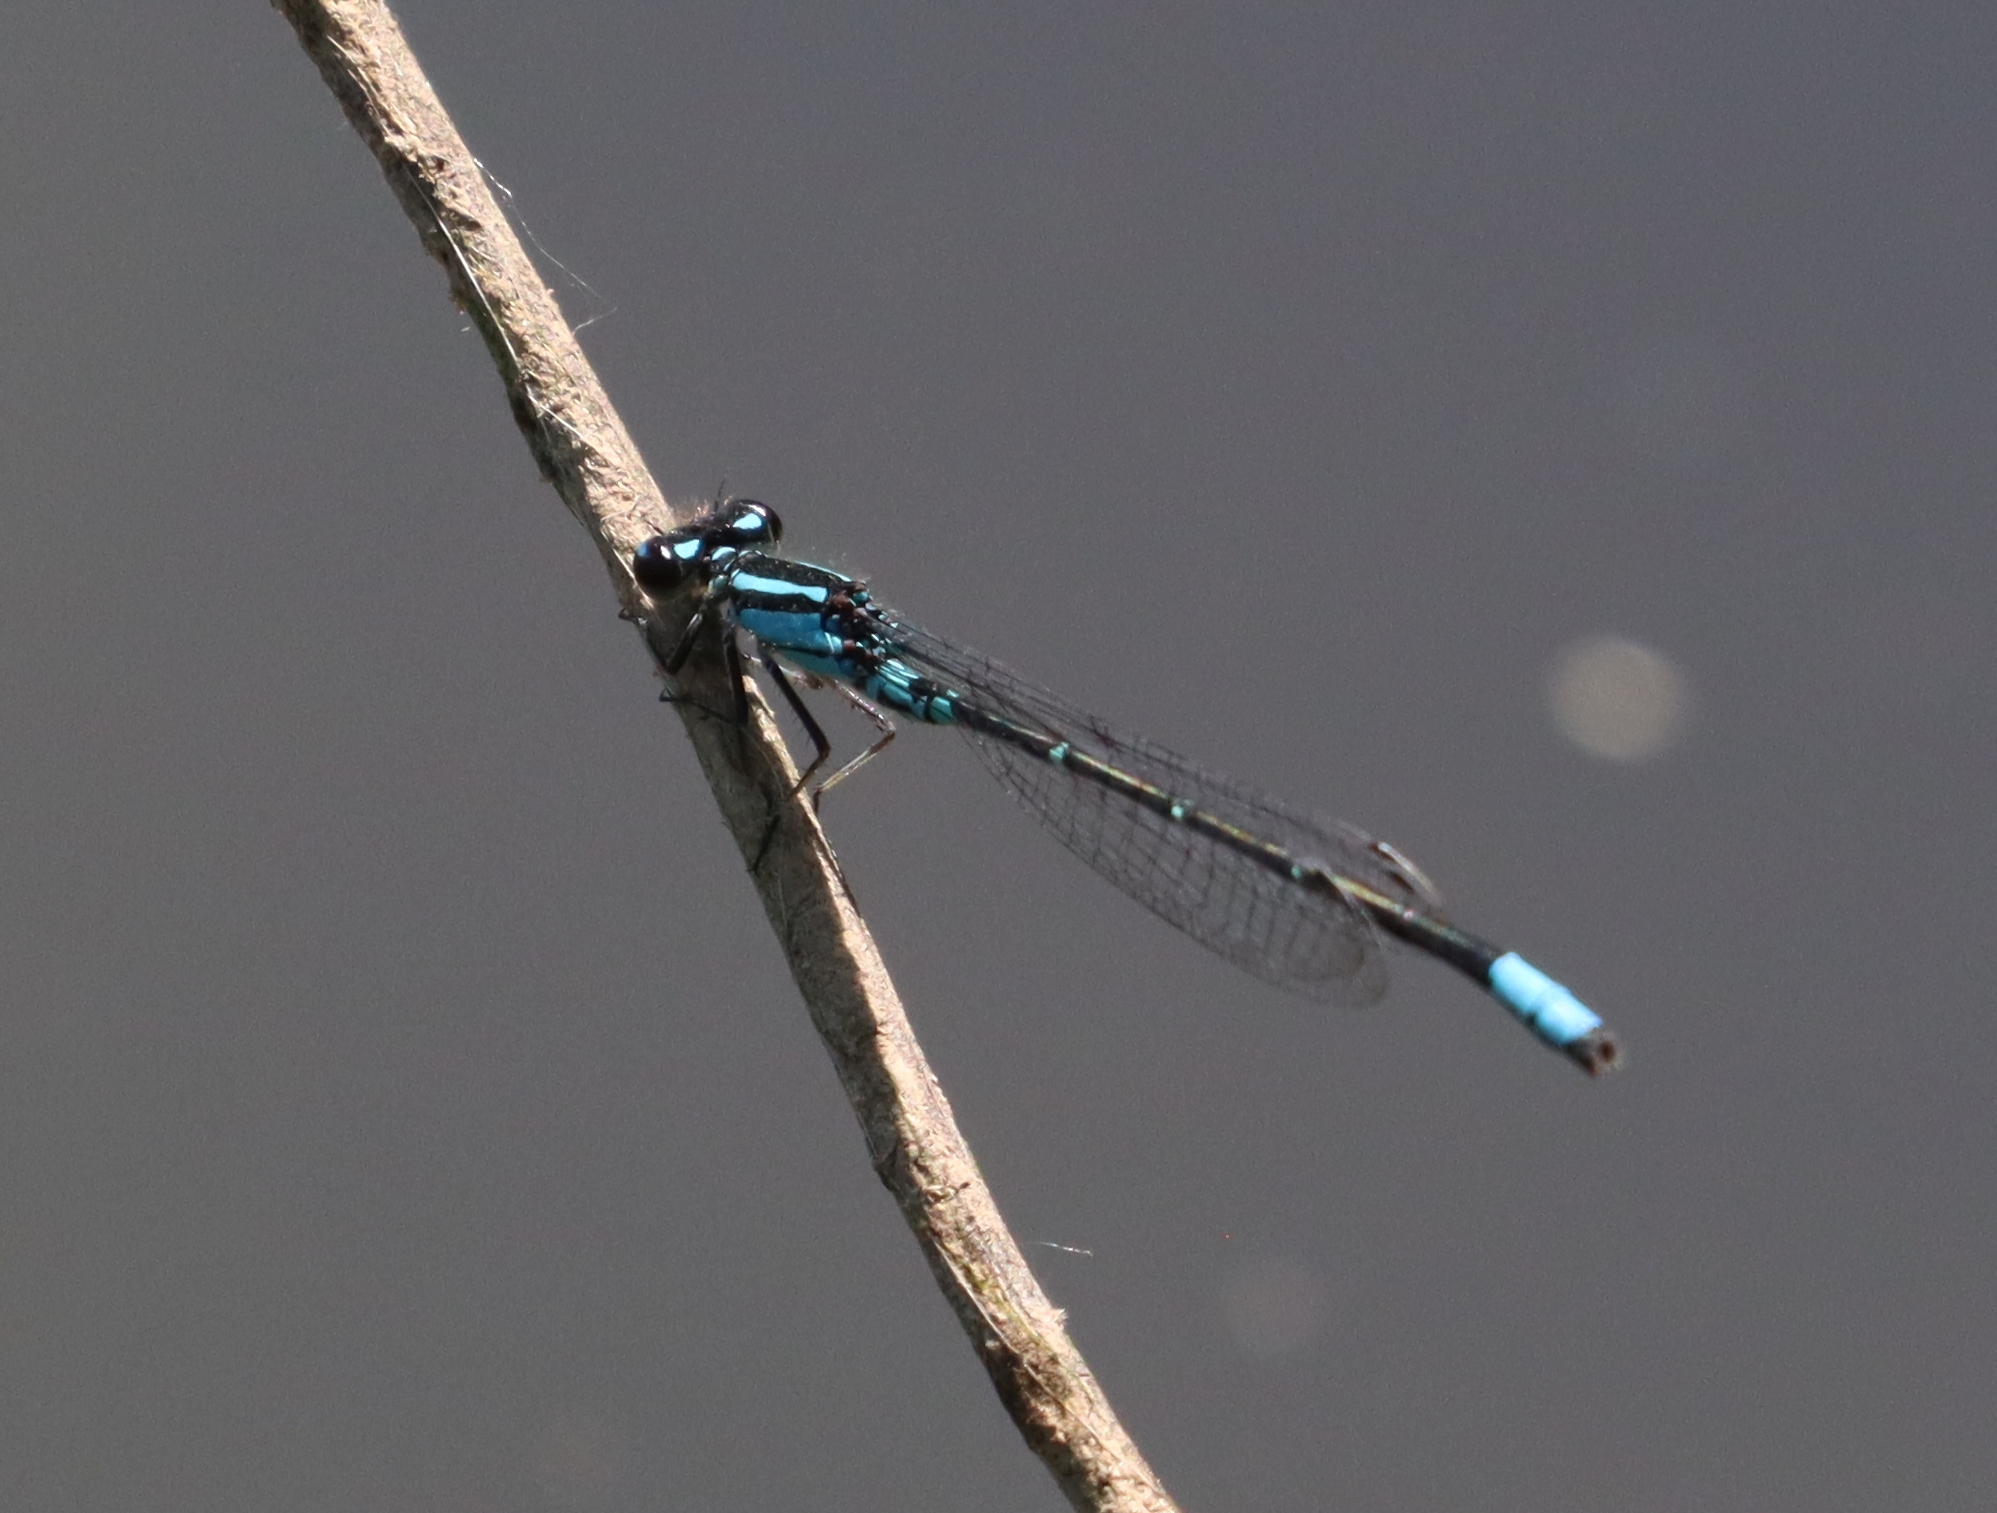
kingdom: Animalia
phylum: Arthropoda
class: Insecta
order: Odonata
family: Coenagrionidae
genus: Enallagma
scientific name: Enallagma geminatum
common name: Skimming bluet
